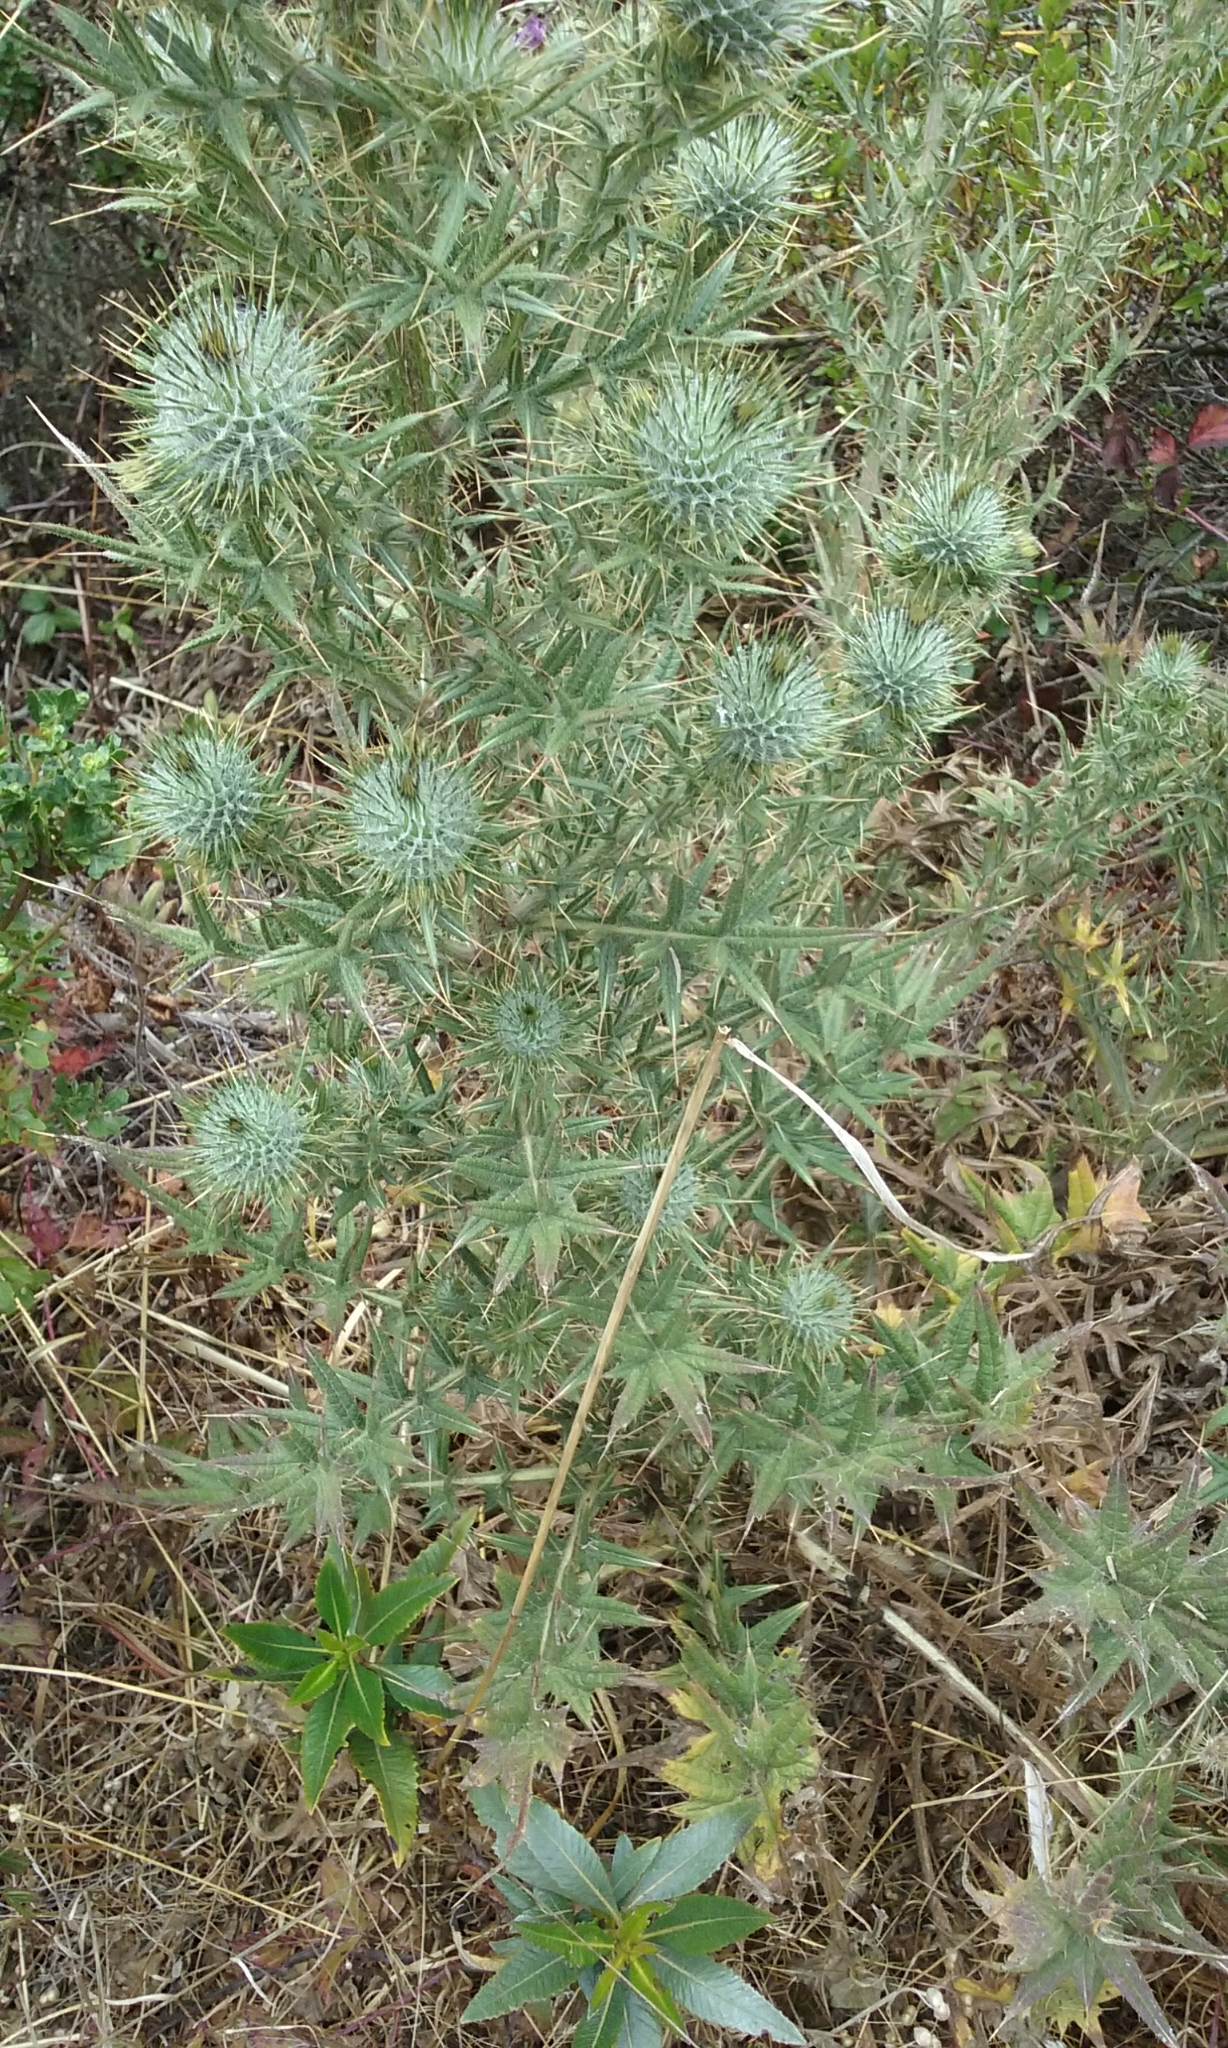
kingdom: Plantae
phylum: Tracheophyta
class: Magnoliopsida
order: Asterales
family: Asteraceae
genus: Cirsium
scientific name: Cirsium vulgare
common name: Bull thistle
